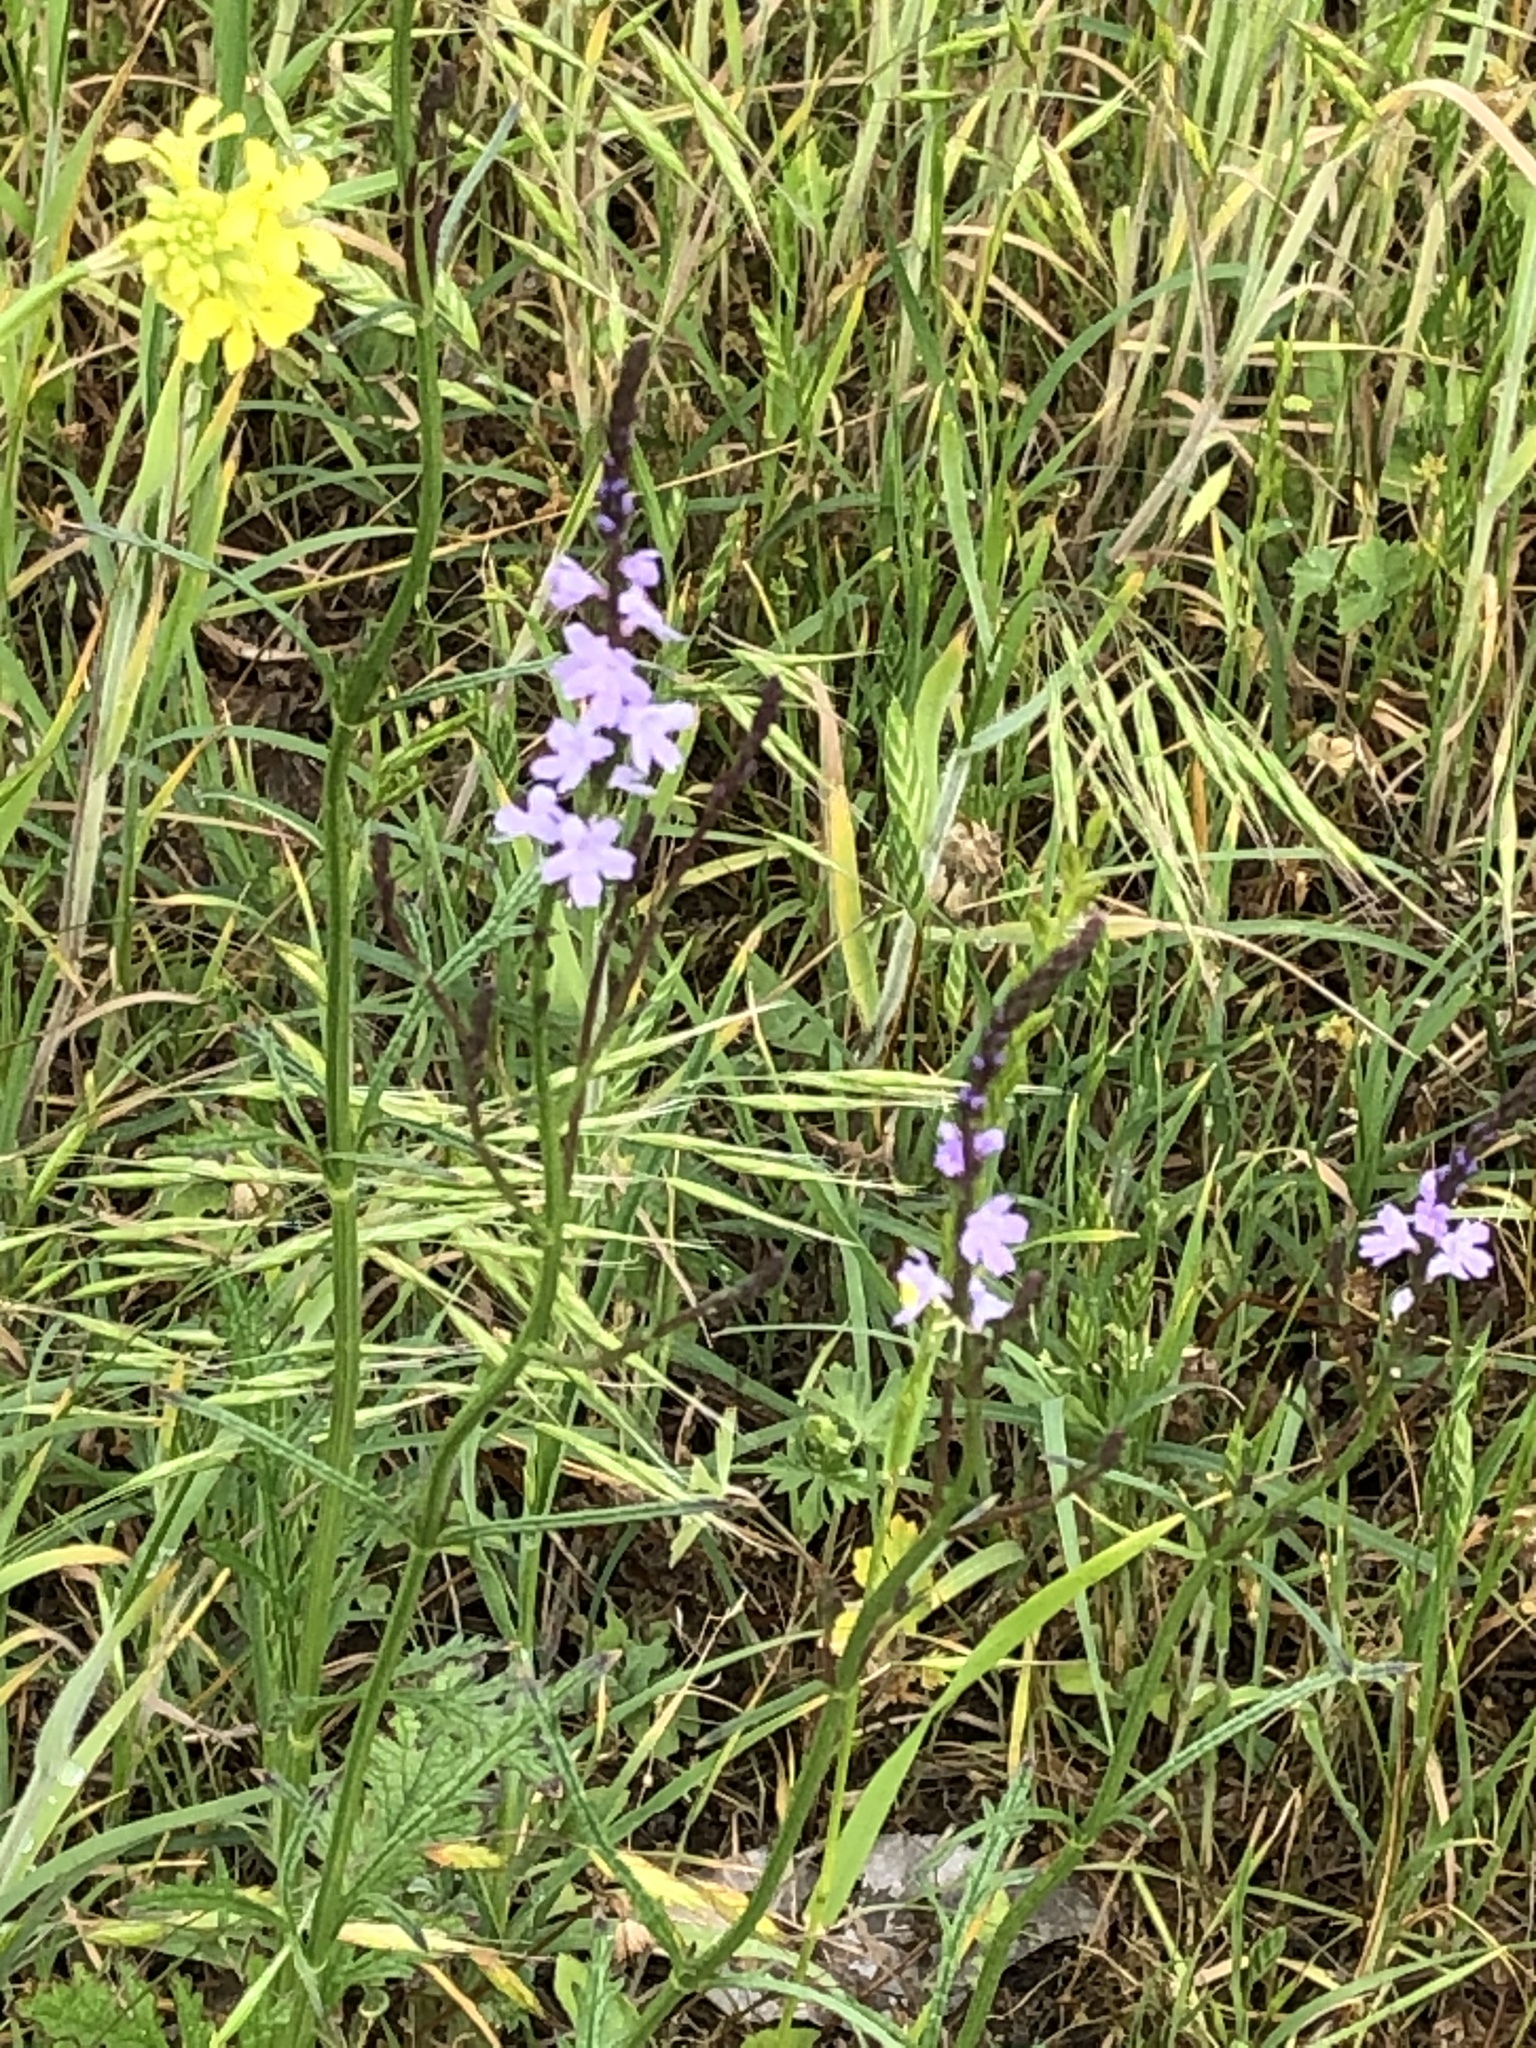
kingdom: Plantae
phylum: Tracheophyta
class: Magnoliopsida
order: Lamiales
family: Verbenaceae
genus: Verbena
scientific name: Verbena halei
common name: Texas vervain
